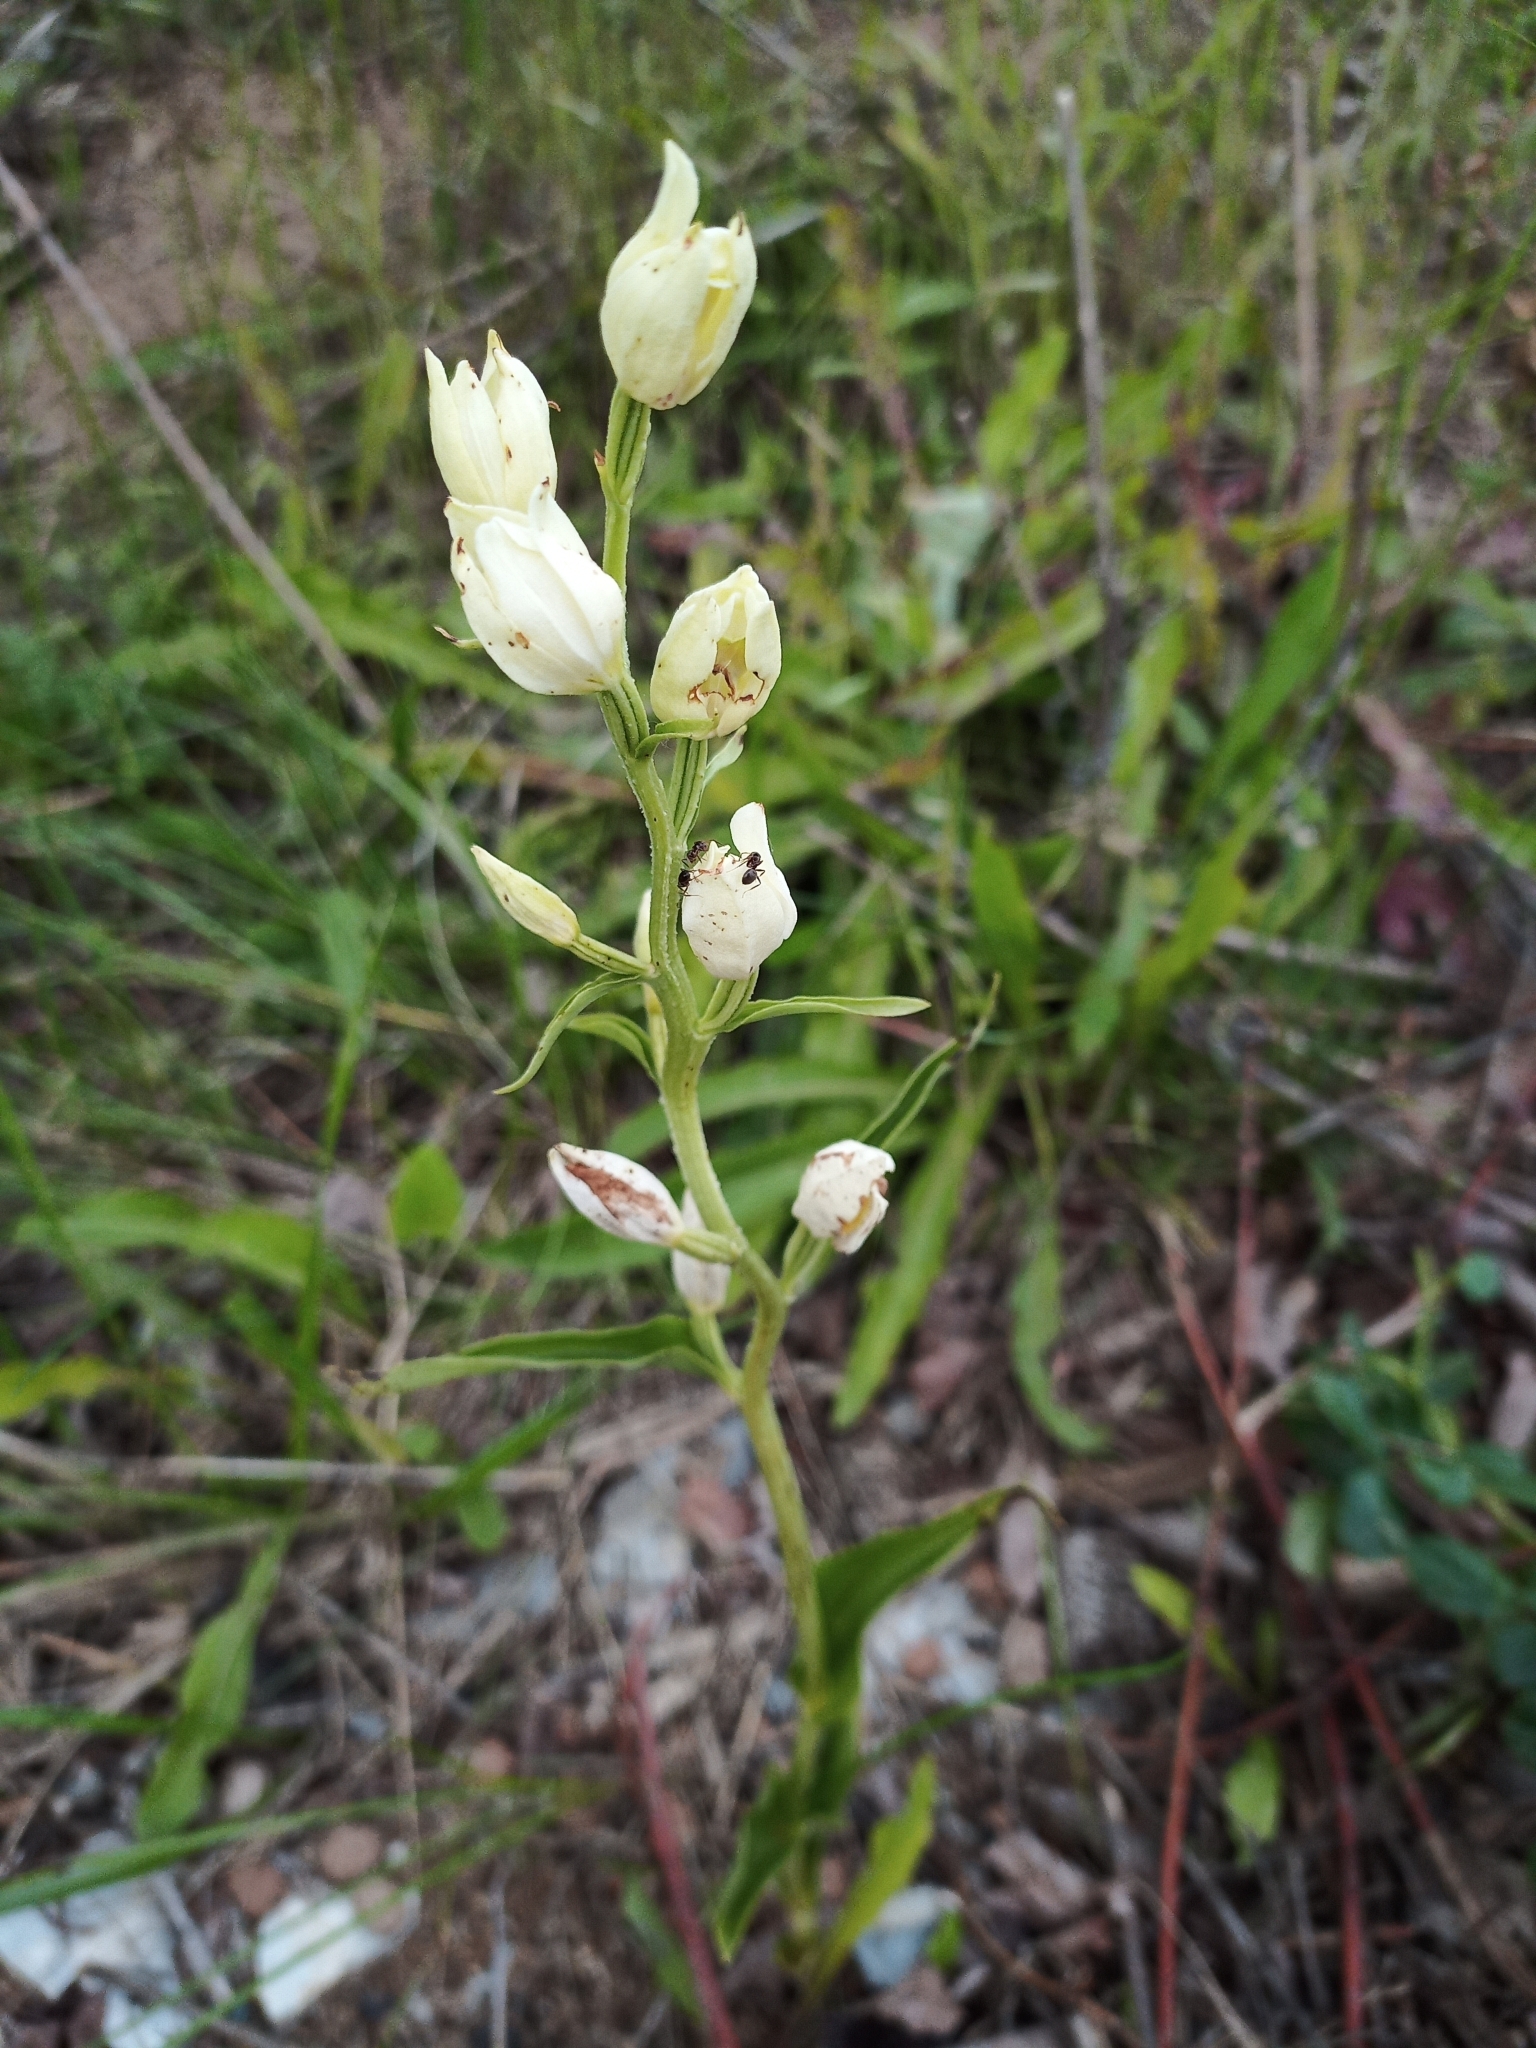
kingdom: Plantae
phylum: Tracheophyta
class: Liliopsida
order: Asparagales
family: Orchidaceae
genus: Cephalanthera
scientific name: Cephalanthera damasonium
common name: White helleborine
